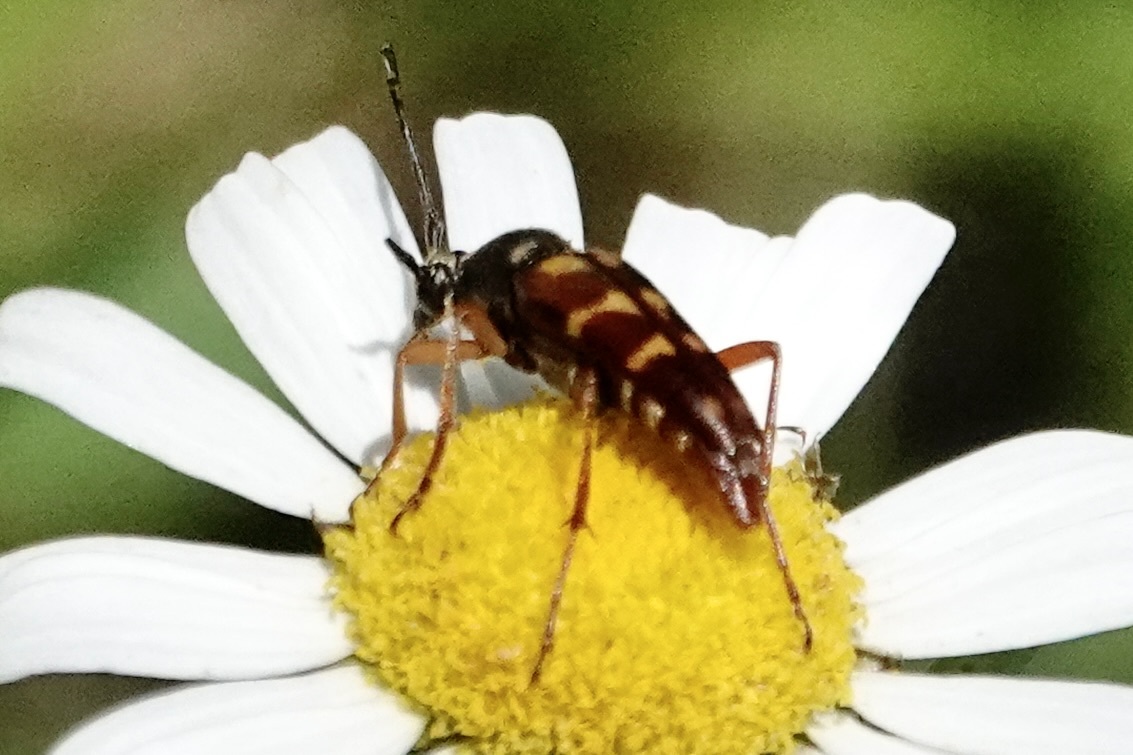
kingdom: Animalia
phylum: Arthropoda
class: Insecta
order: Coleoptera
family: Cerambycidae
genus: Typocerus
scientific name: Typocerus velutinus
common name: Banded longhorn beetle
